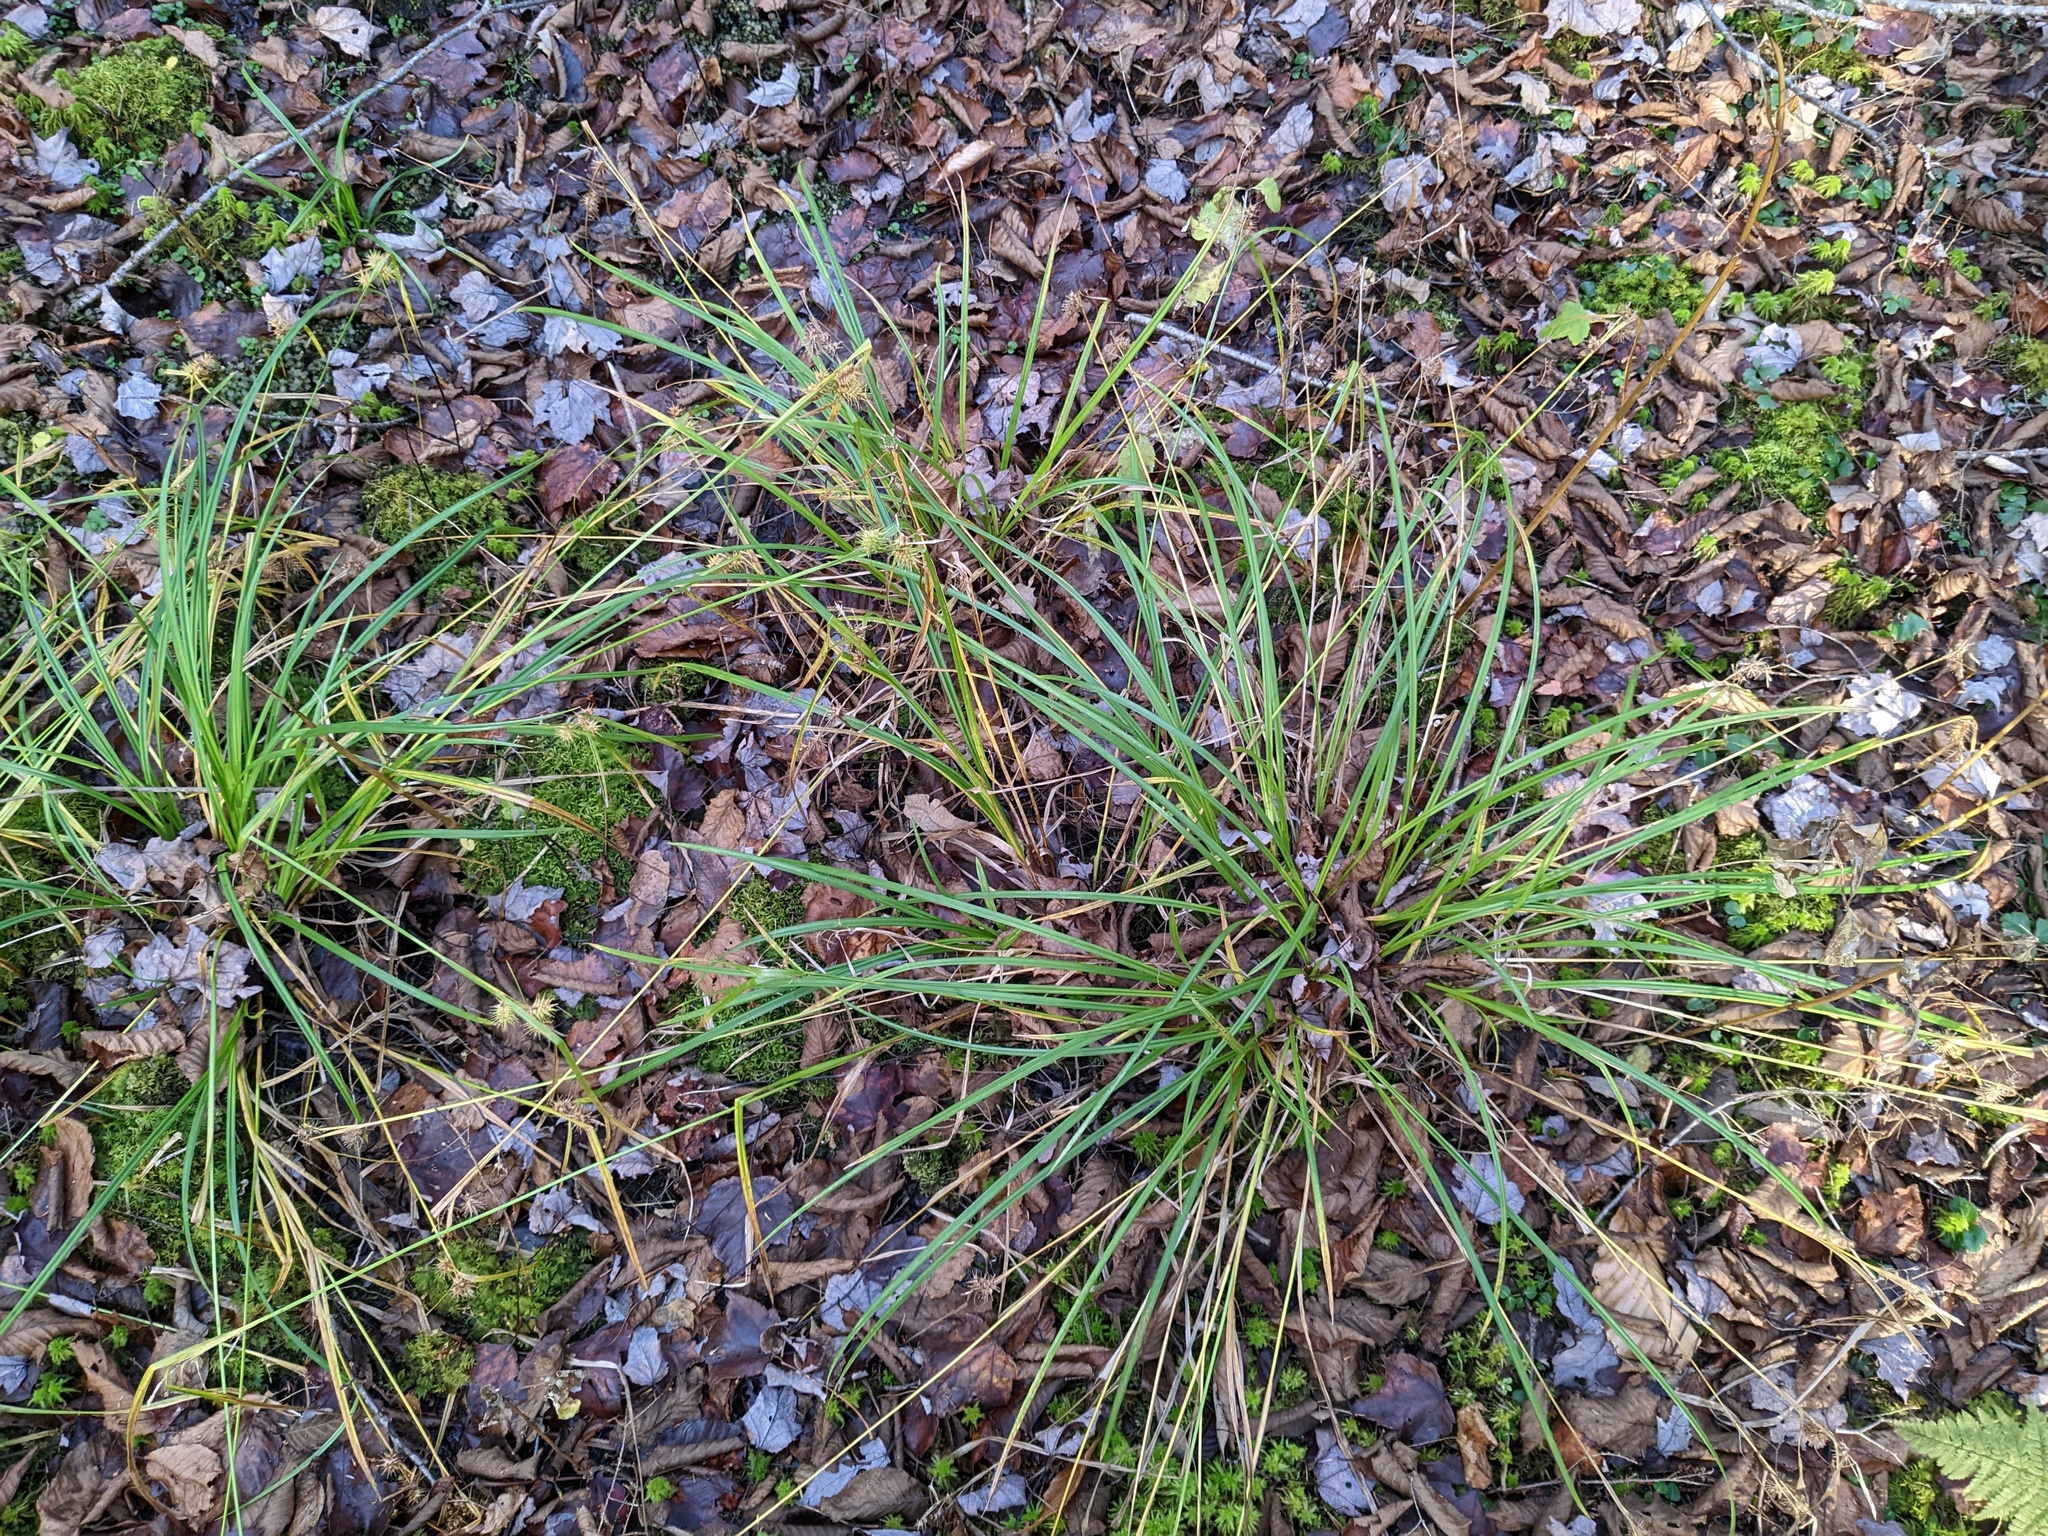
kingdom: Plantae
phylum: Tracheophyta
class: Liliopsida
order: Poales
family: Cyperaceae
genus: Carex
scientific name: Carex lurida
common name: Sallow sedge
